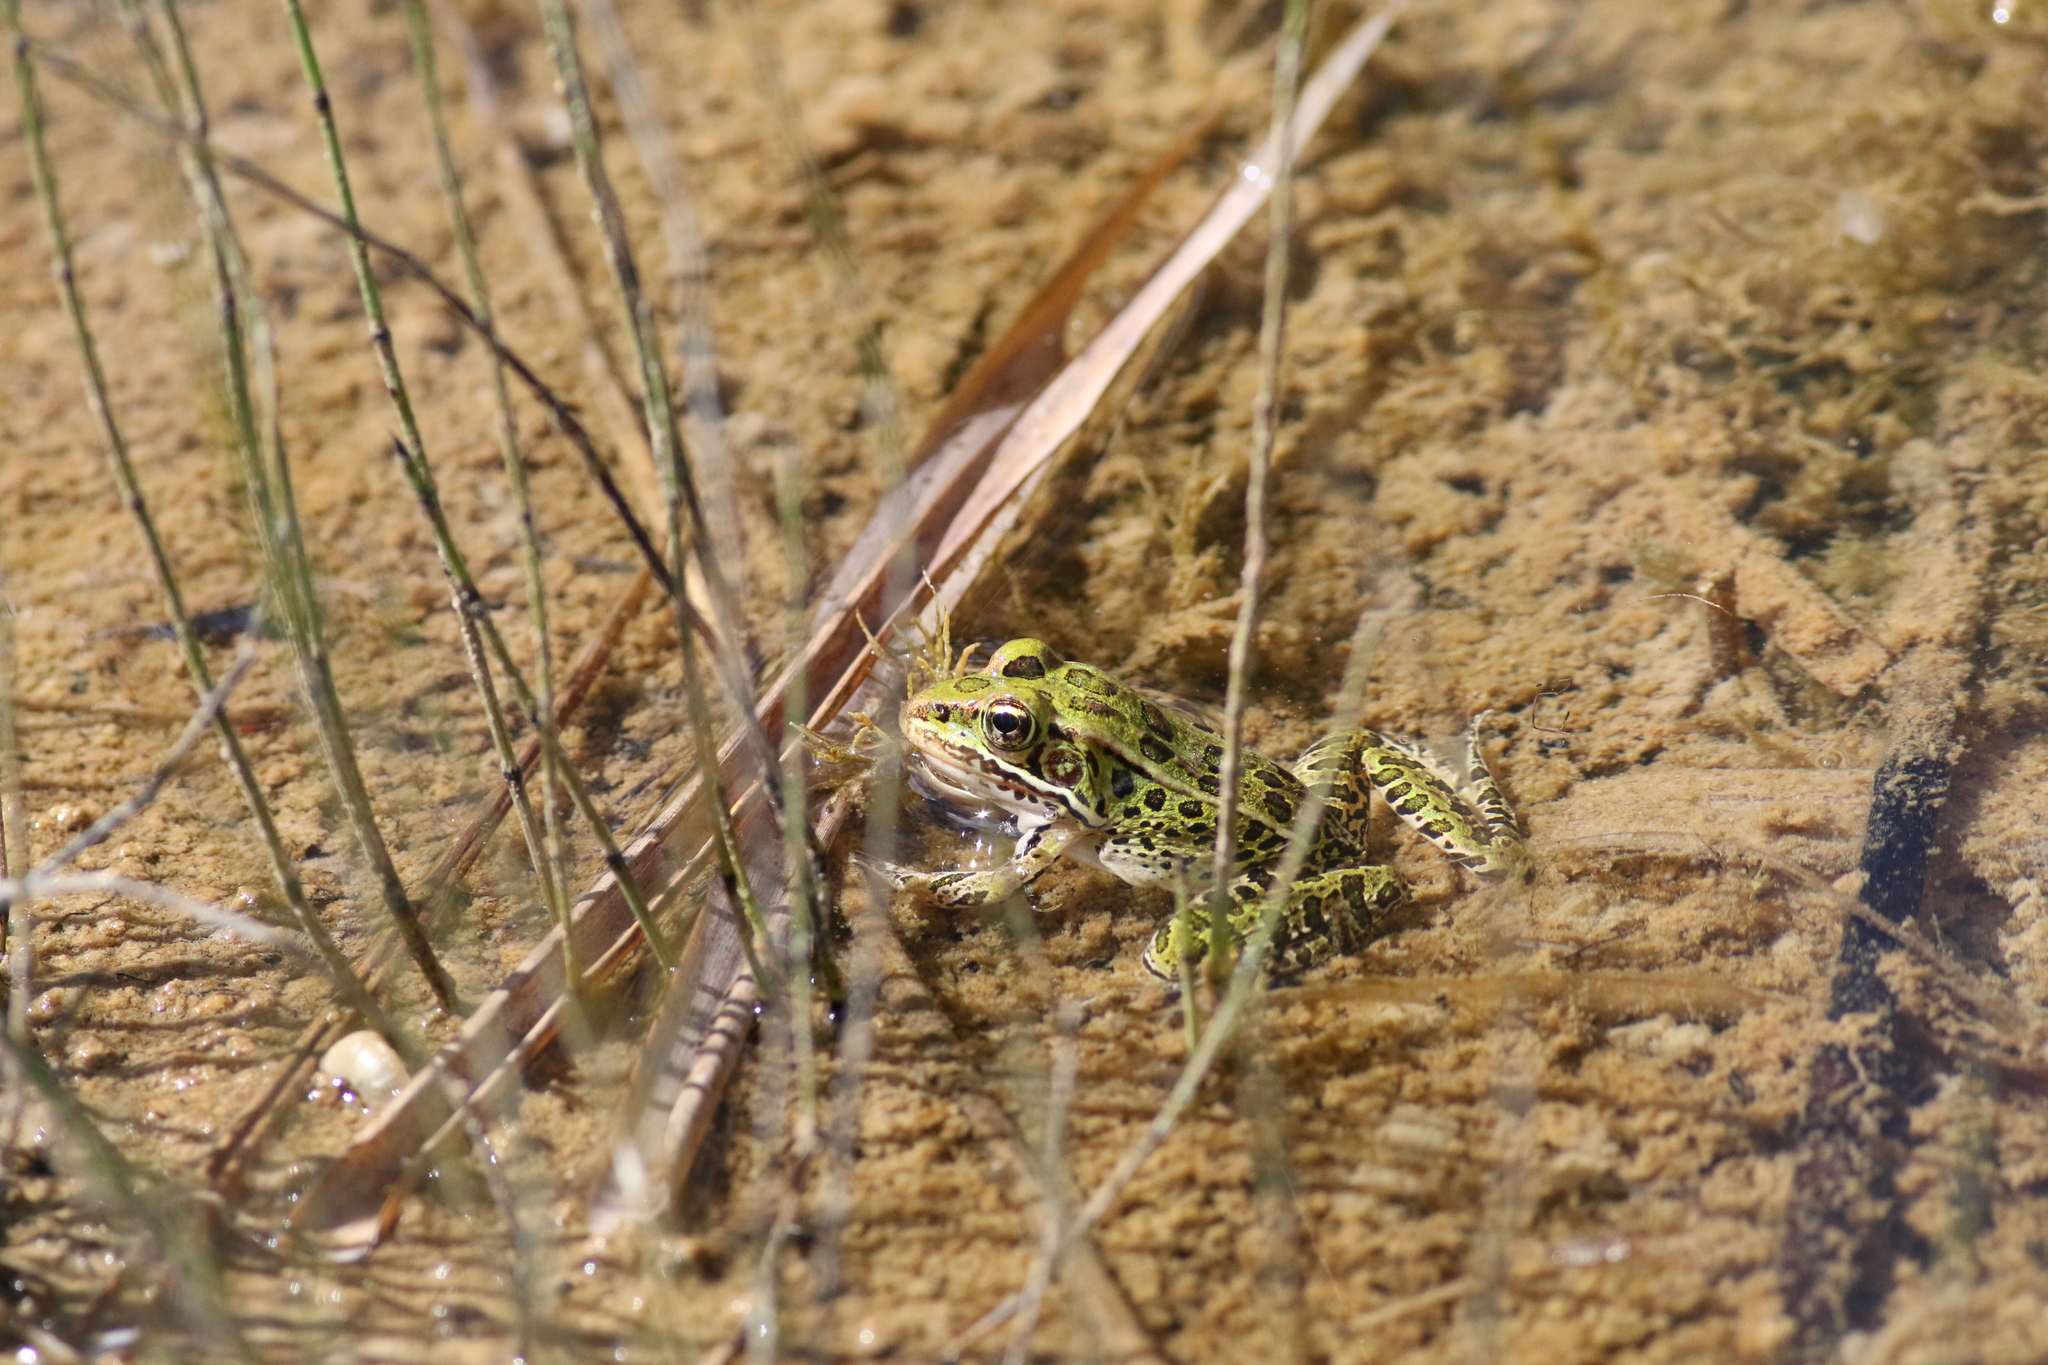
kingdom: Animalia
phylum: Chordata
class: Amphibia
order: Anura
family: Ranidae
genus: Lithobates
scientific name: Lithobates pipiens
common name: Northern leopard frog
